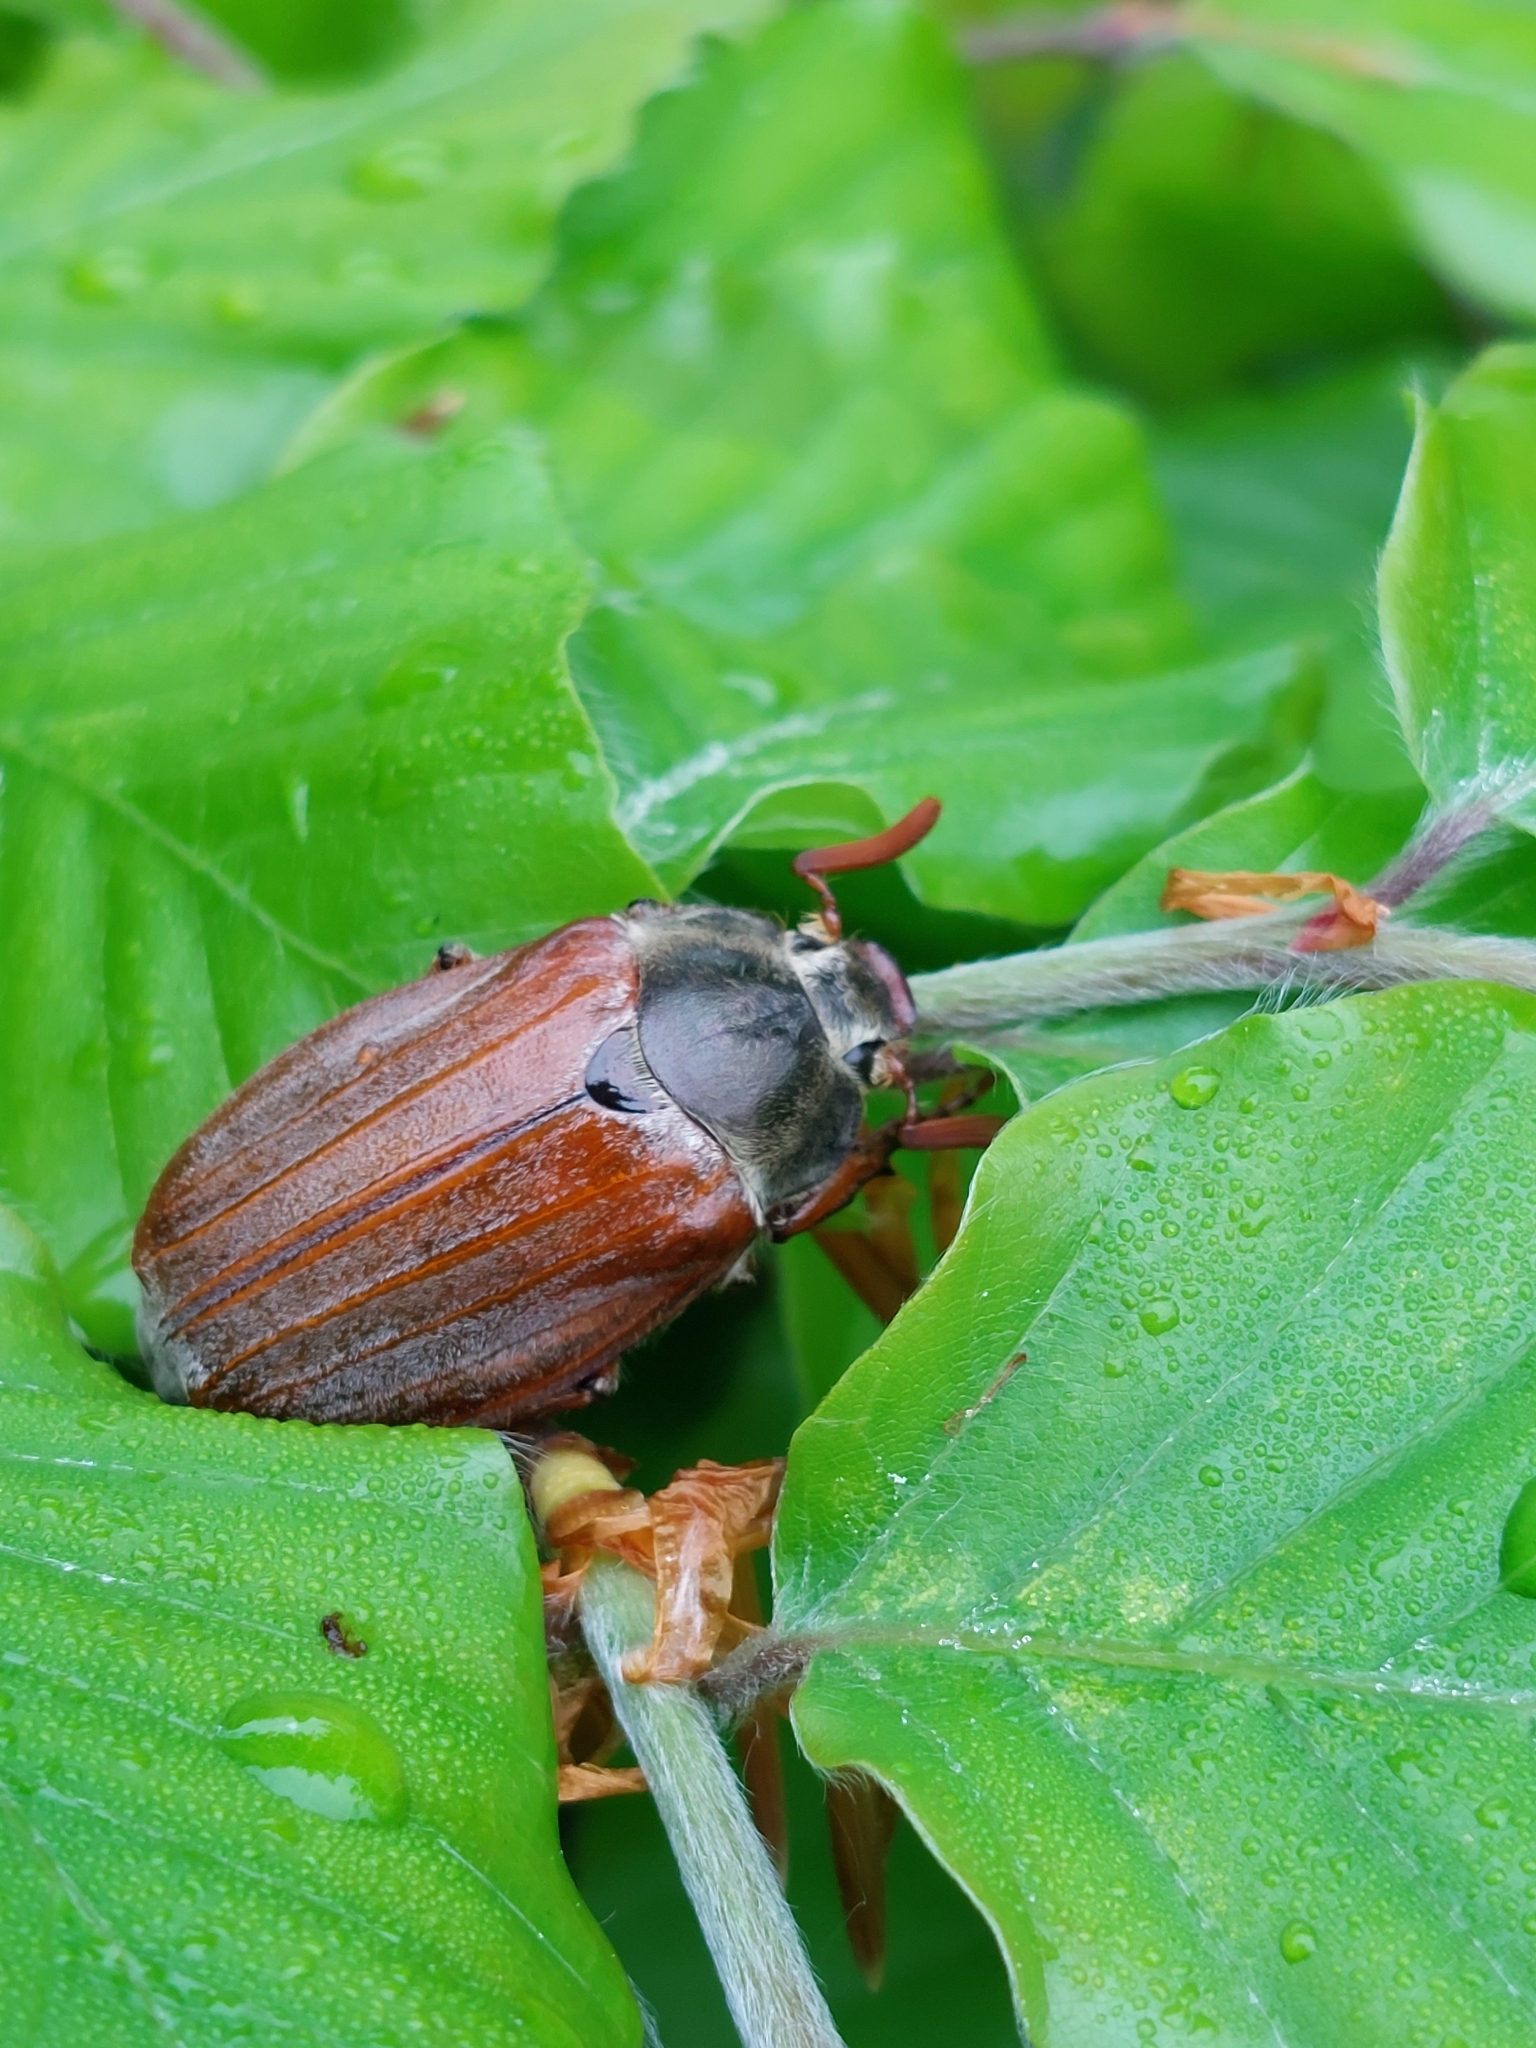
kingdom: Animalia
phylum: Arthropoda
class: Insecta
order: Coleoptera
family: Scarabaeidae
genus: Melolontha
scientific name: Melolontha melolontha
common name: Cockchafer maybeetle
